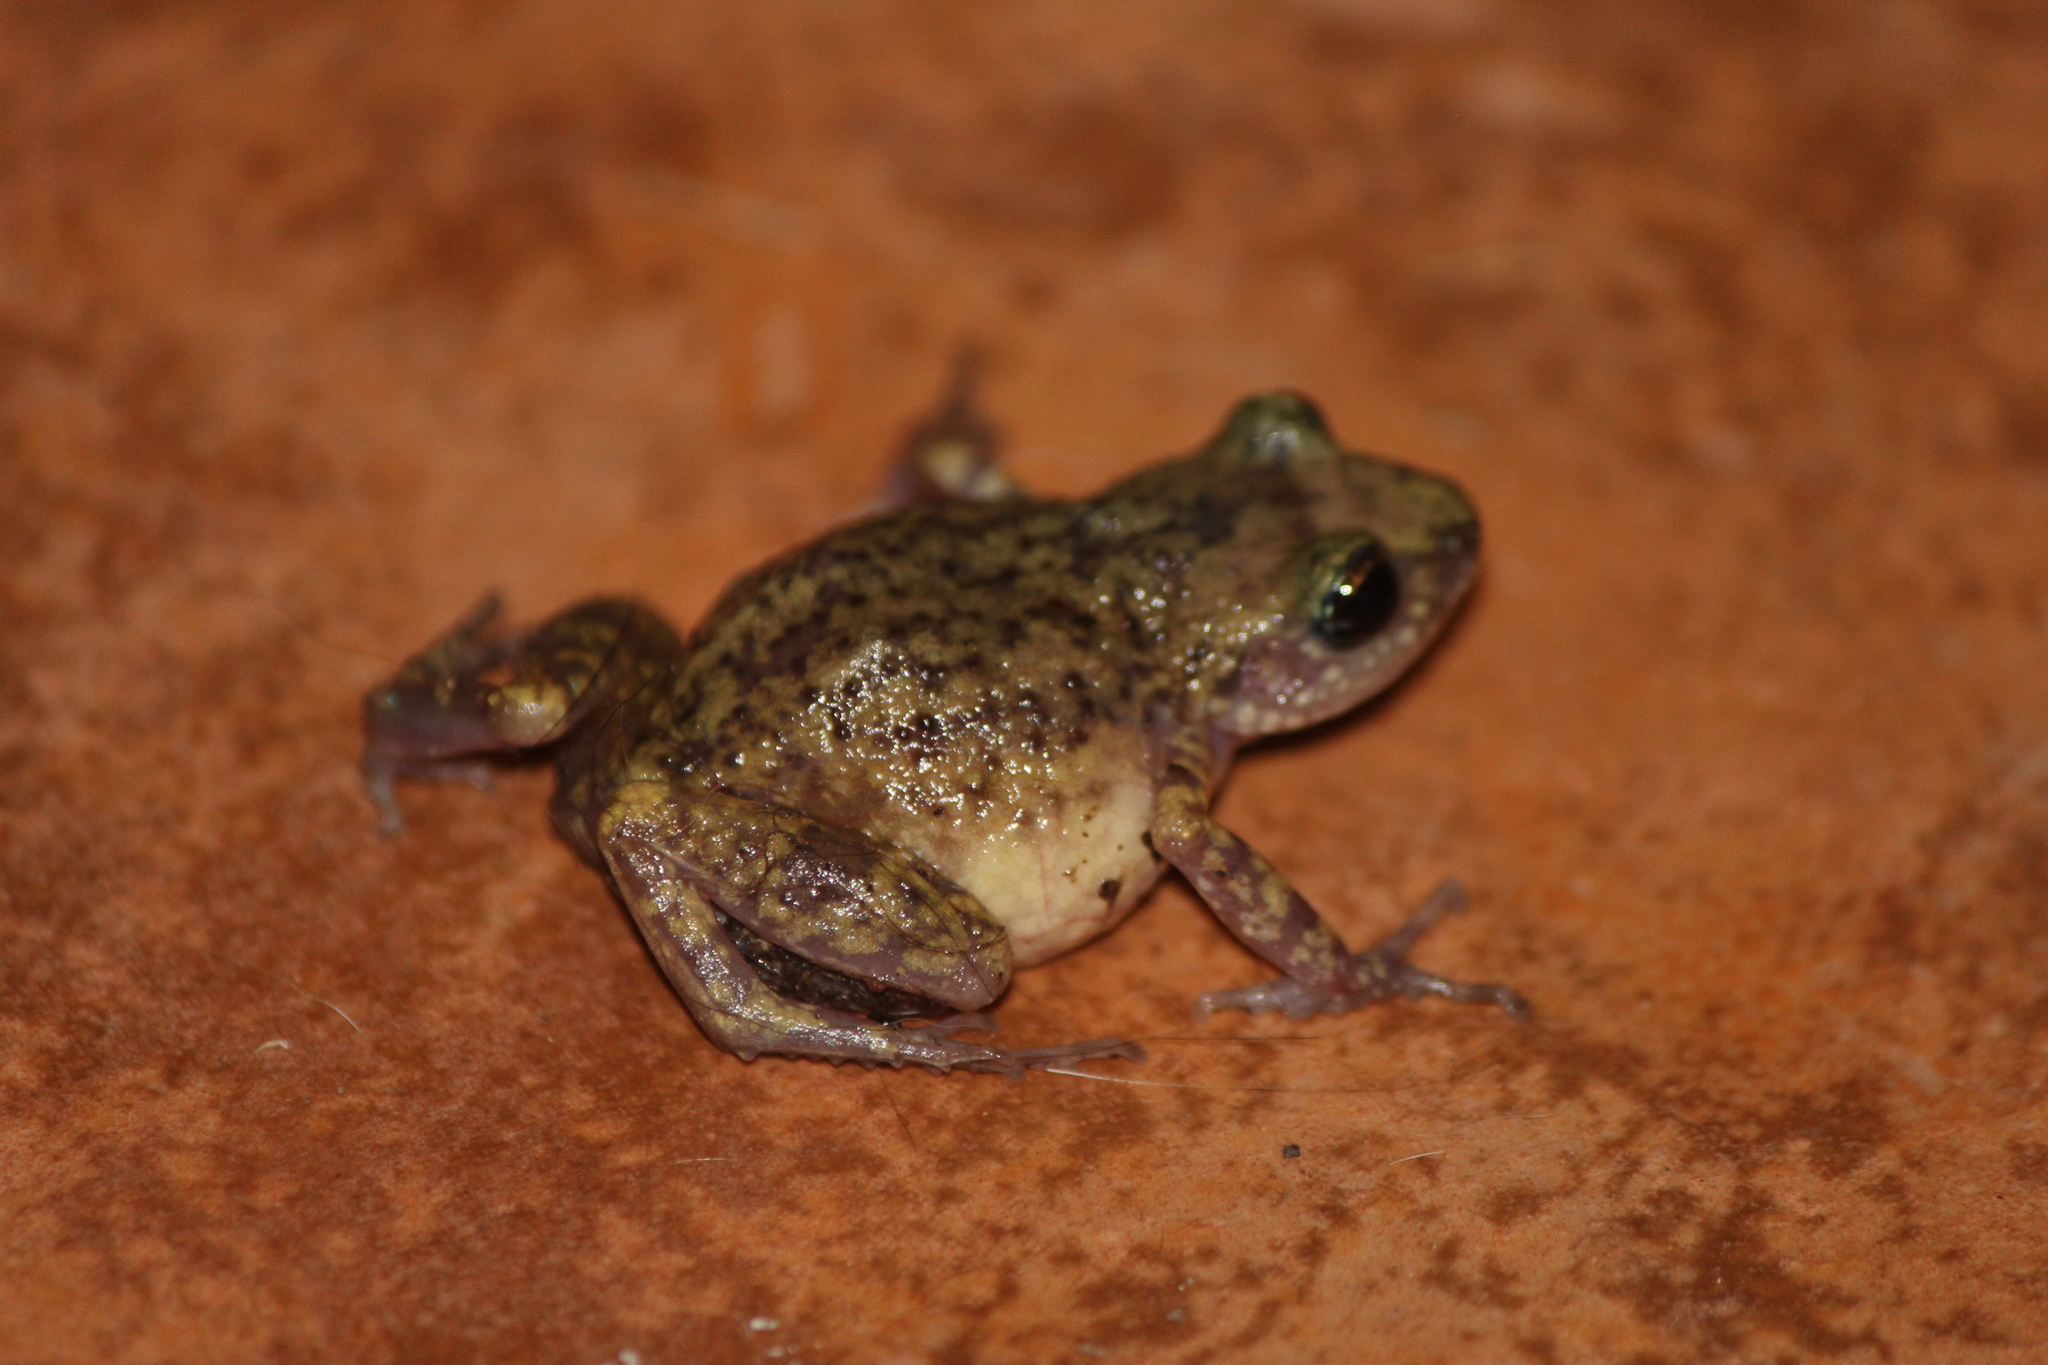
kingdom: Animalia
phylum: Chordata
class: Amphibia
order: Anura
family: Eleutherodactylidae
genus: Eleutherodactylus
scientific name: Eleutherodactylus verrucipes
